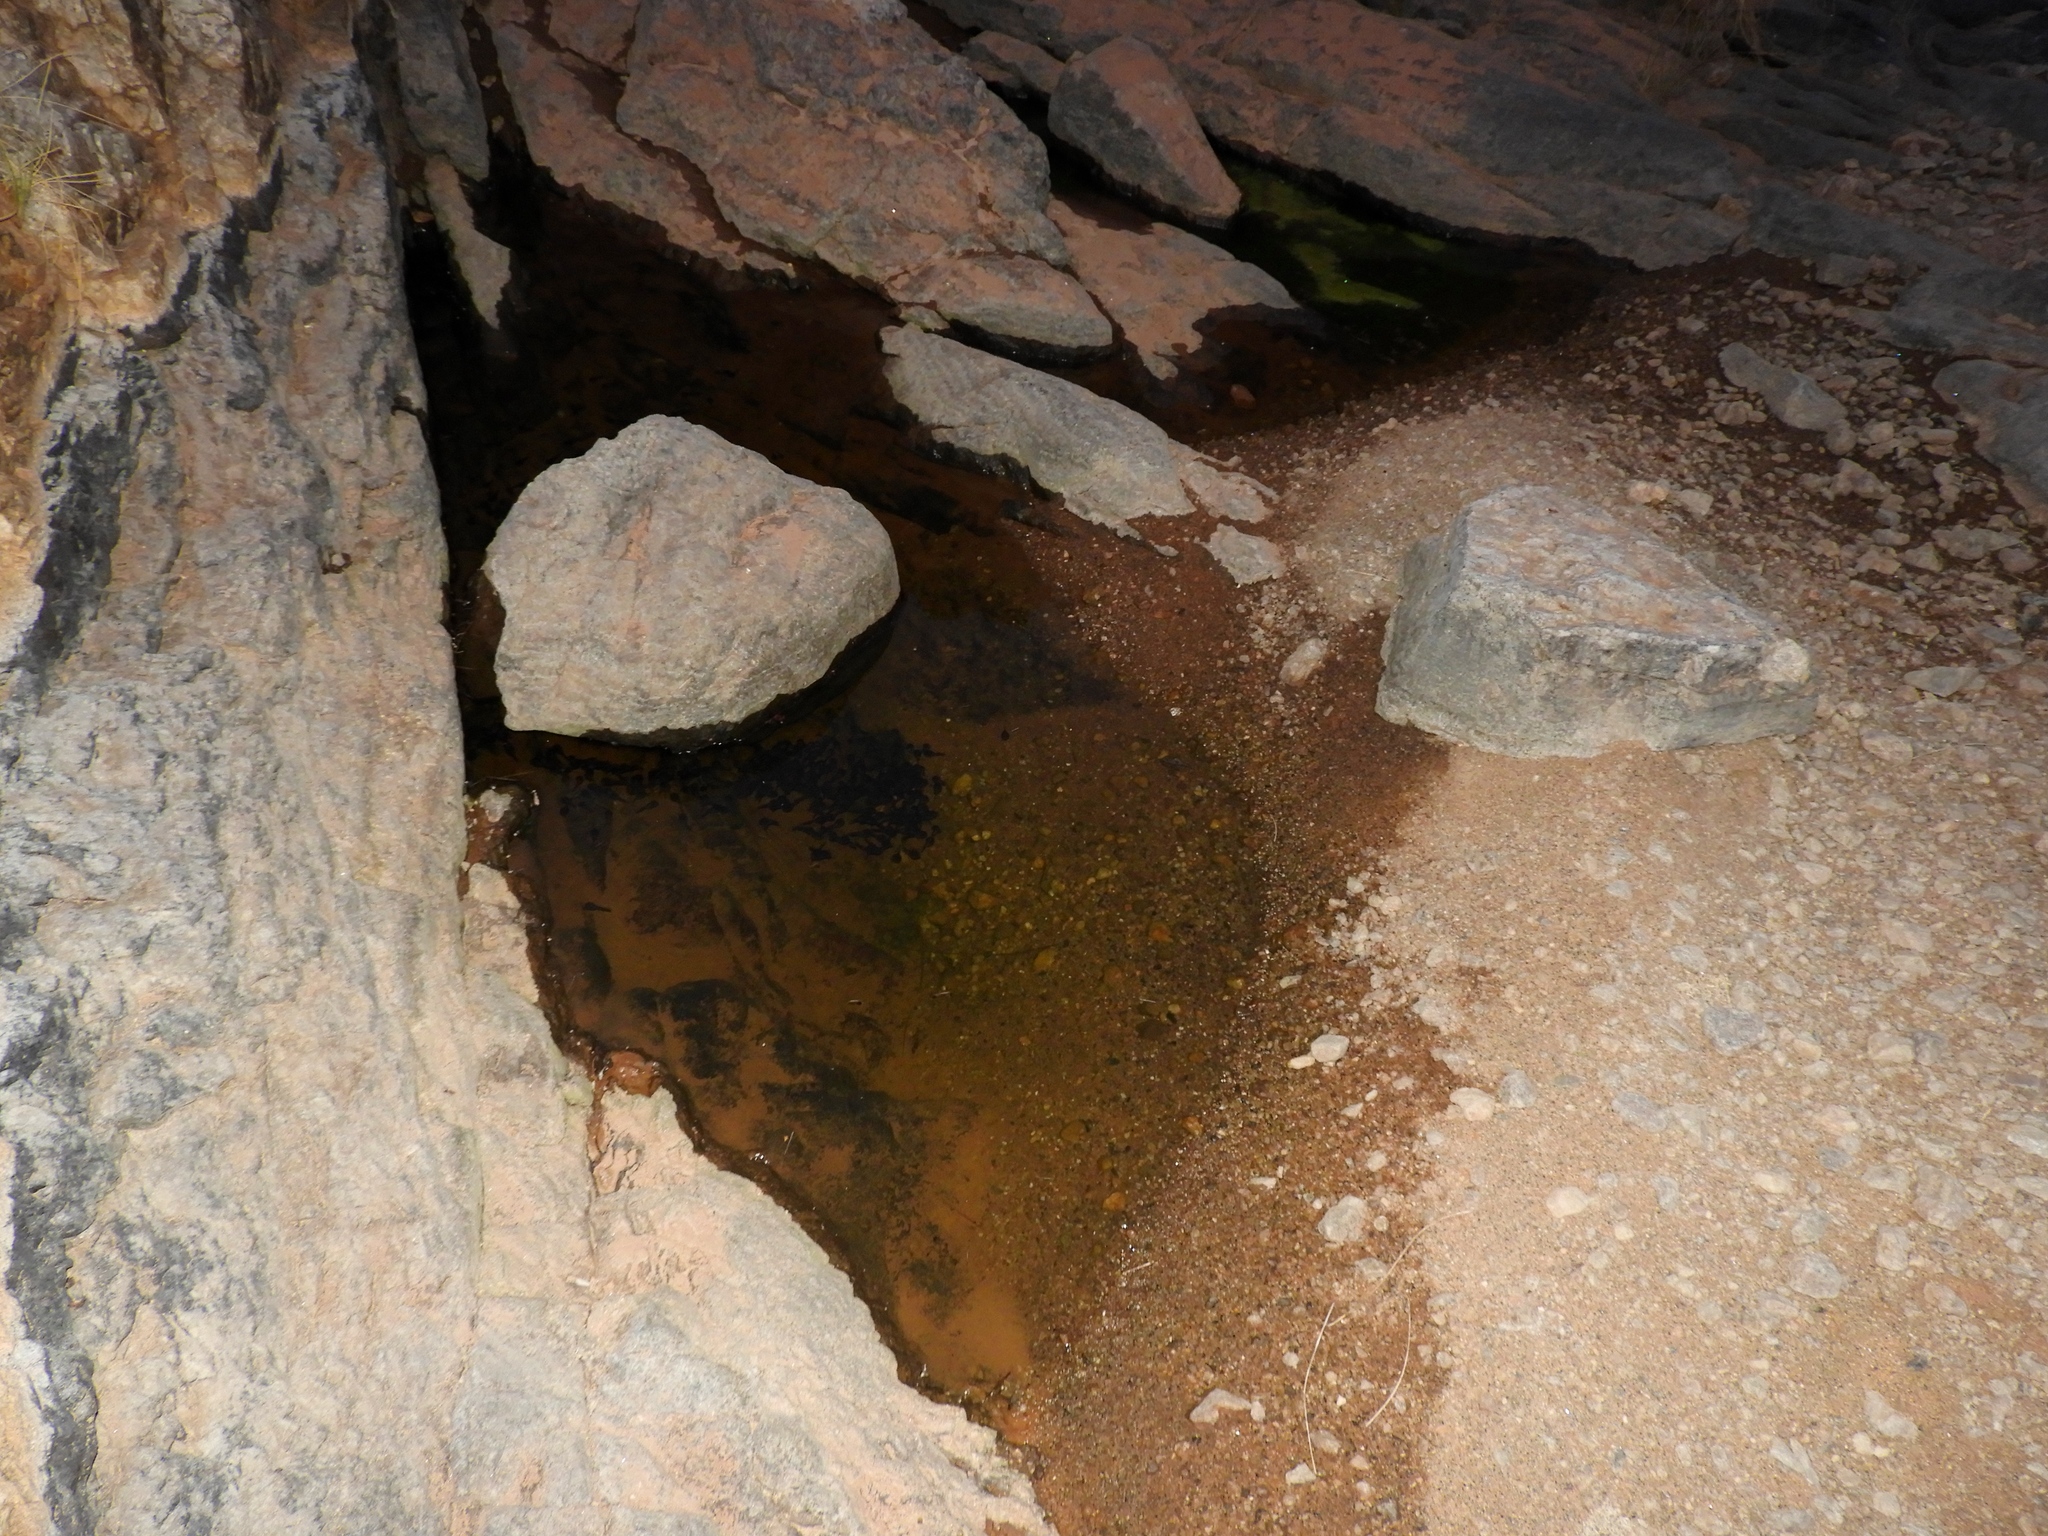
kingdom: Animalia
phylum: Chordata
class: Amphibia
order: Anura
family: Microhylidae
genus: Phrynomantis
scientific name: Phrynomantis annectens
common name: Marbled rubber frog
